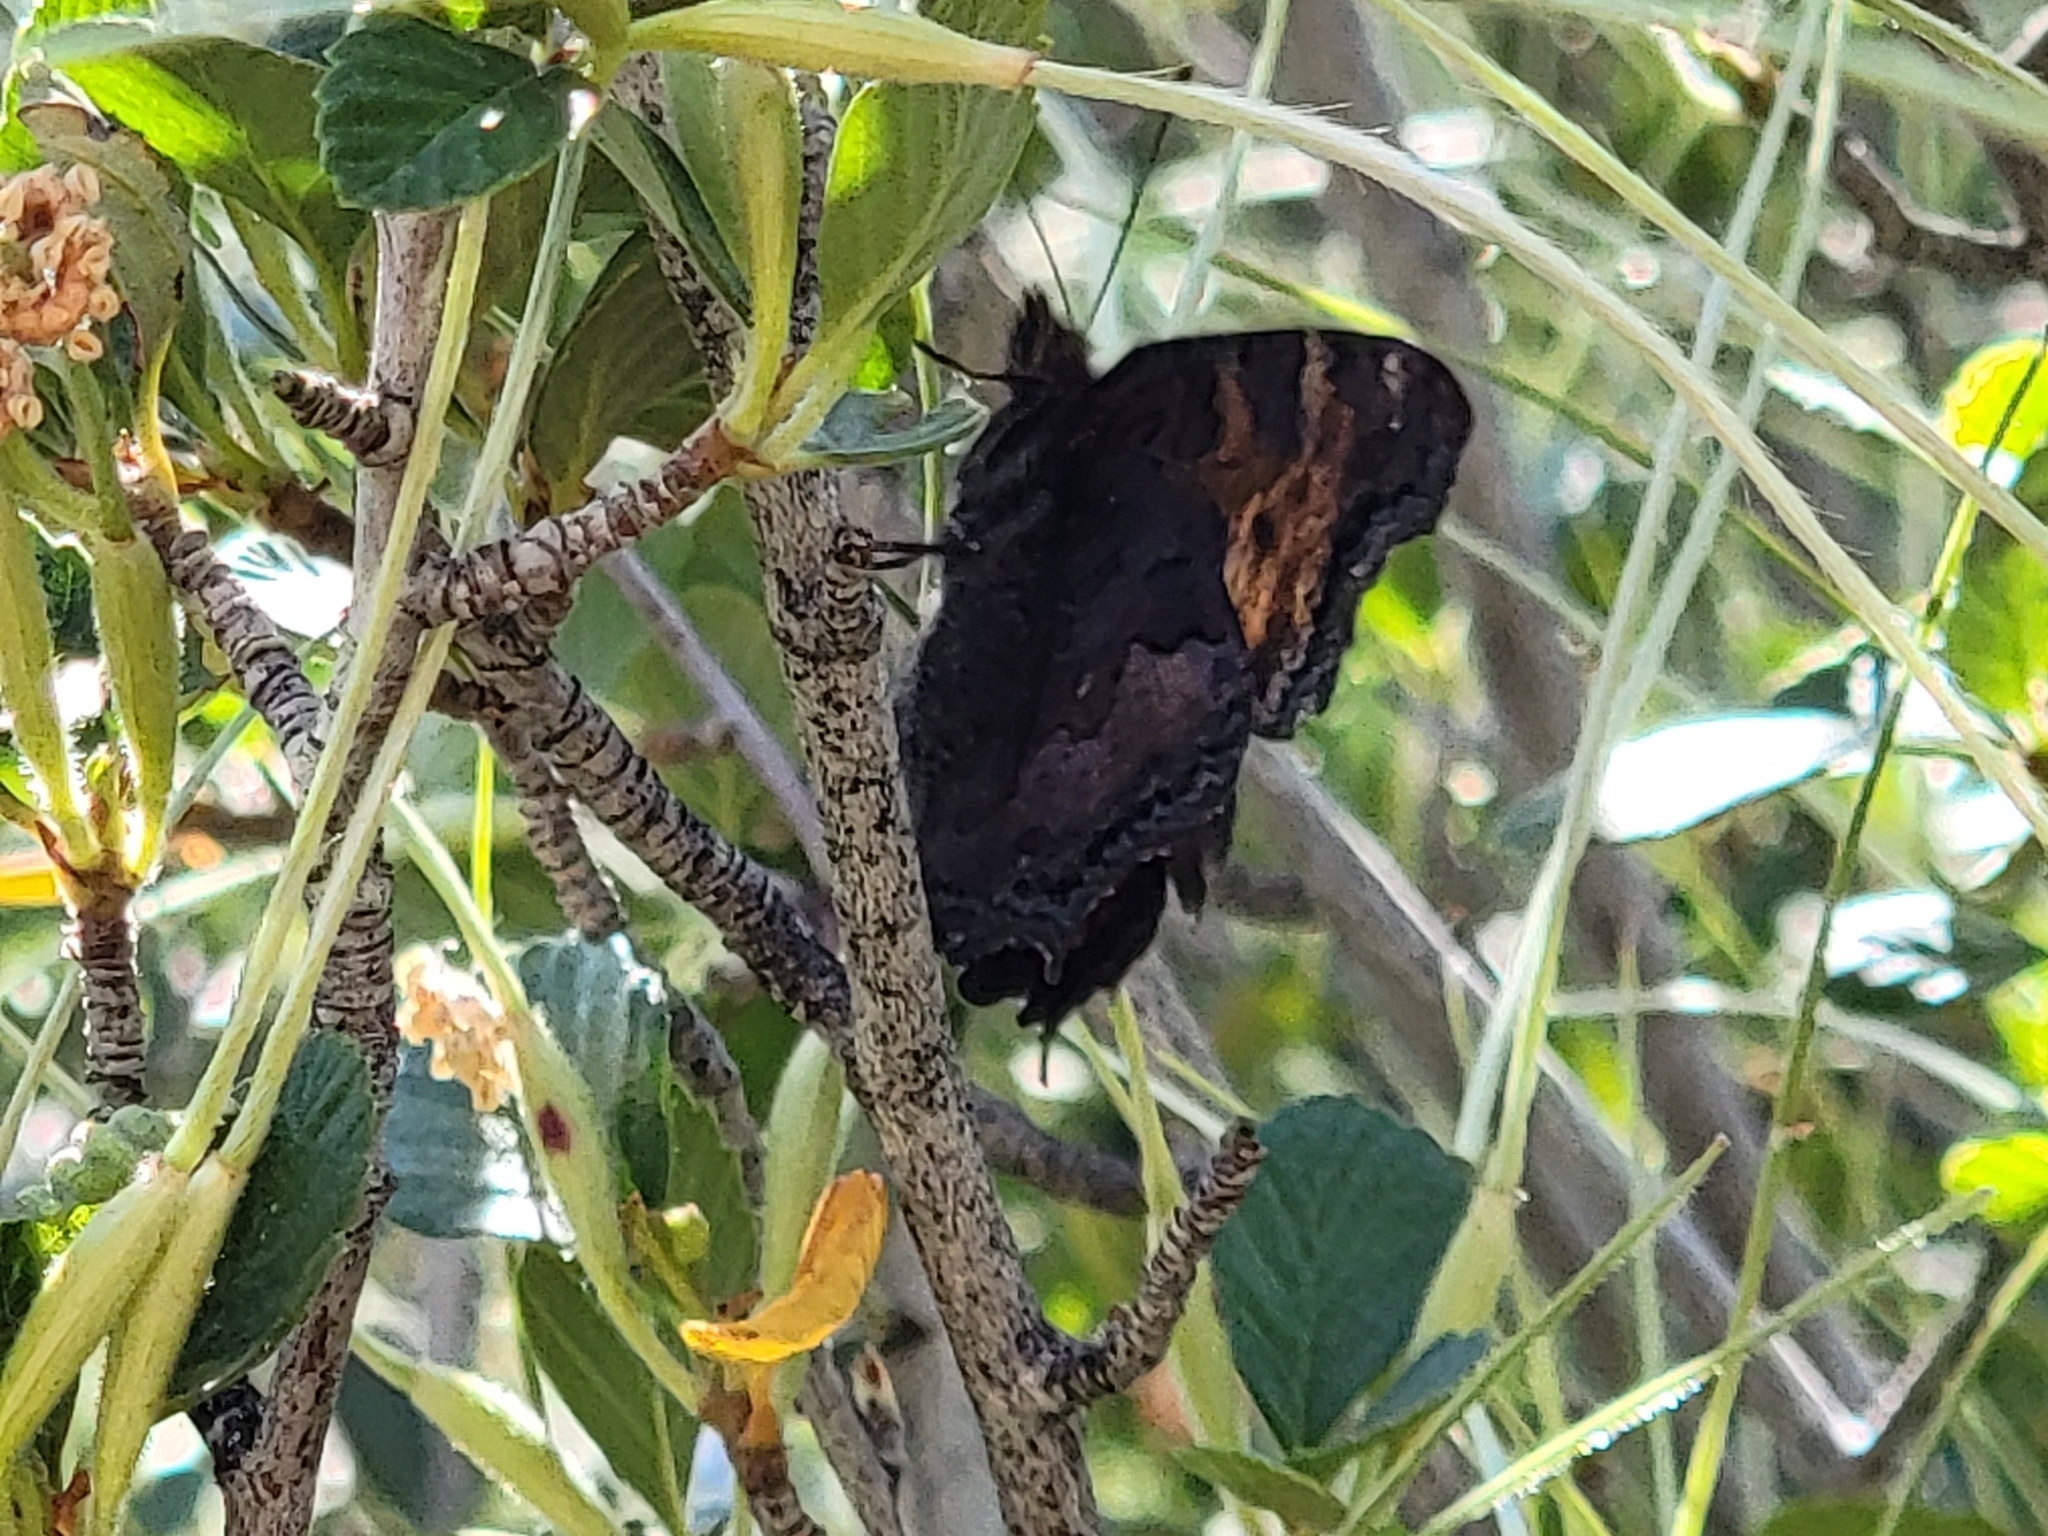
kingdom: Animalia
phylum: Arthropoda
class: Insecta
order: Lepidoptera
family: Nymphalidae
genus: Nymphalis
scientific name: Nymphalis californica
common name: California tortoiseshell
